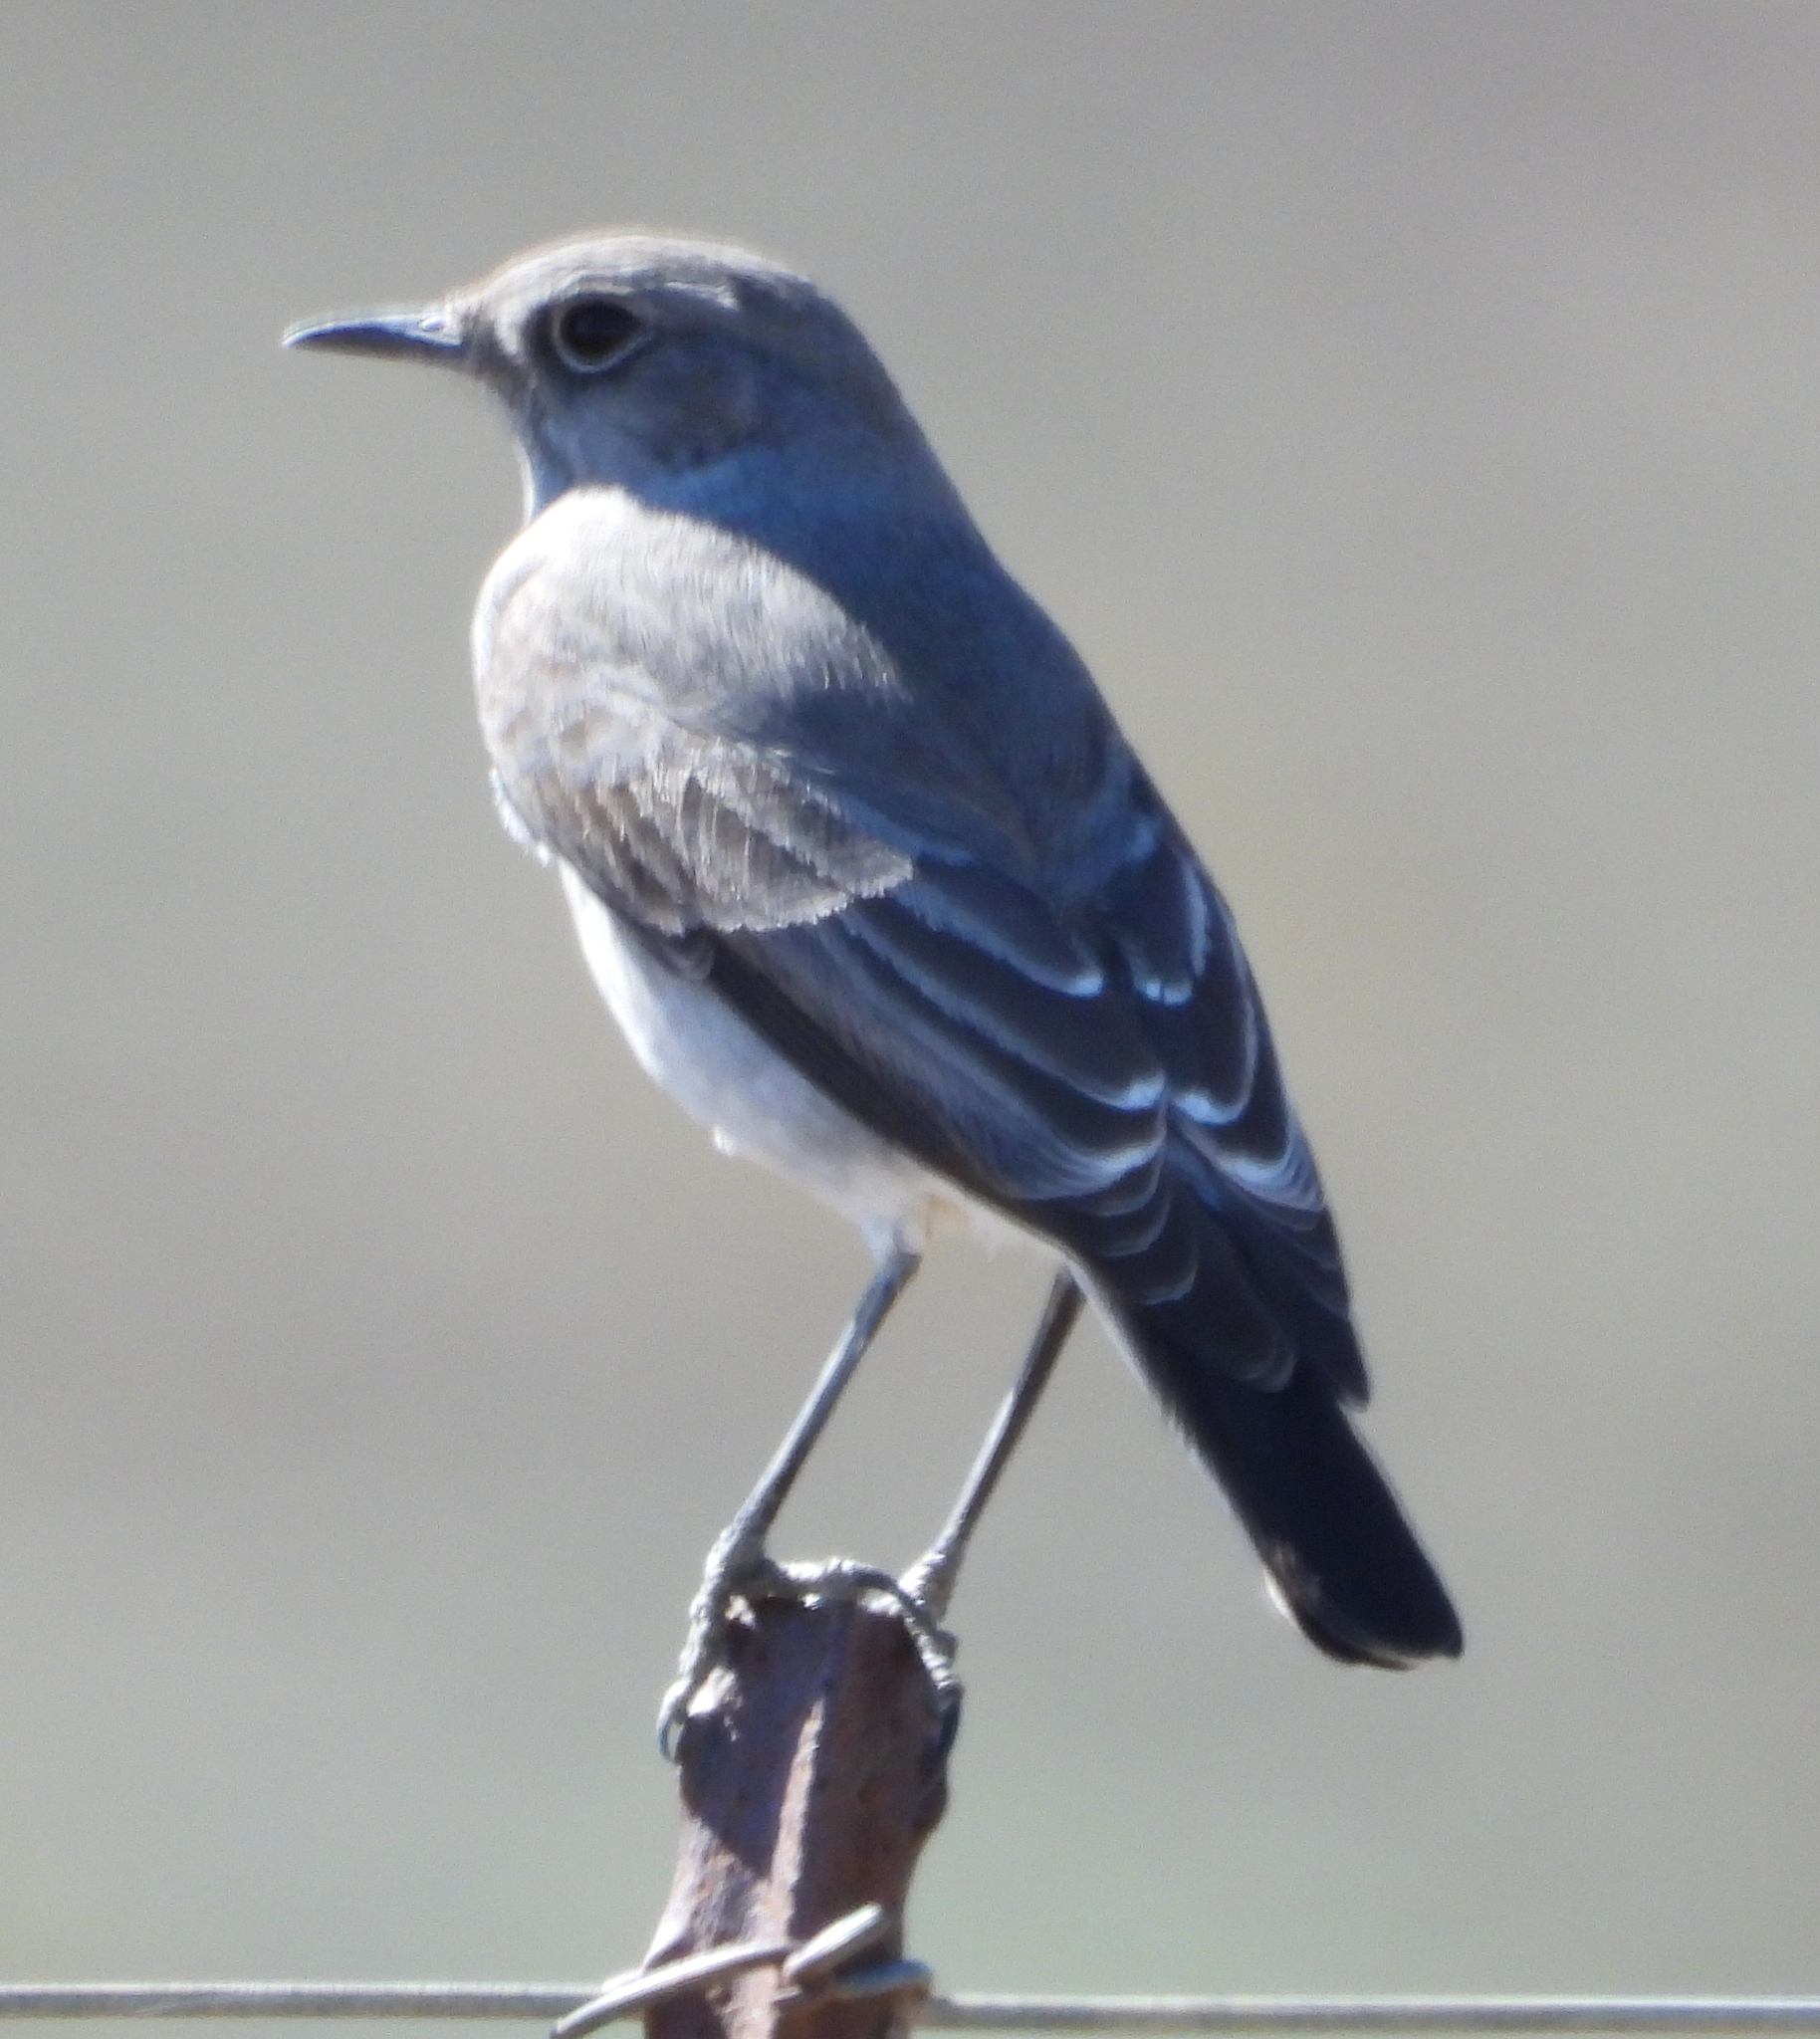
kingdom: Animalia
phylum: Chordata
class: Aves
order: Passeriformes
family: Muscicapidae
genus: Emarginata
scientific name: Emarginata schlegelii
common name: Karoo chat
